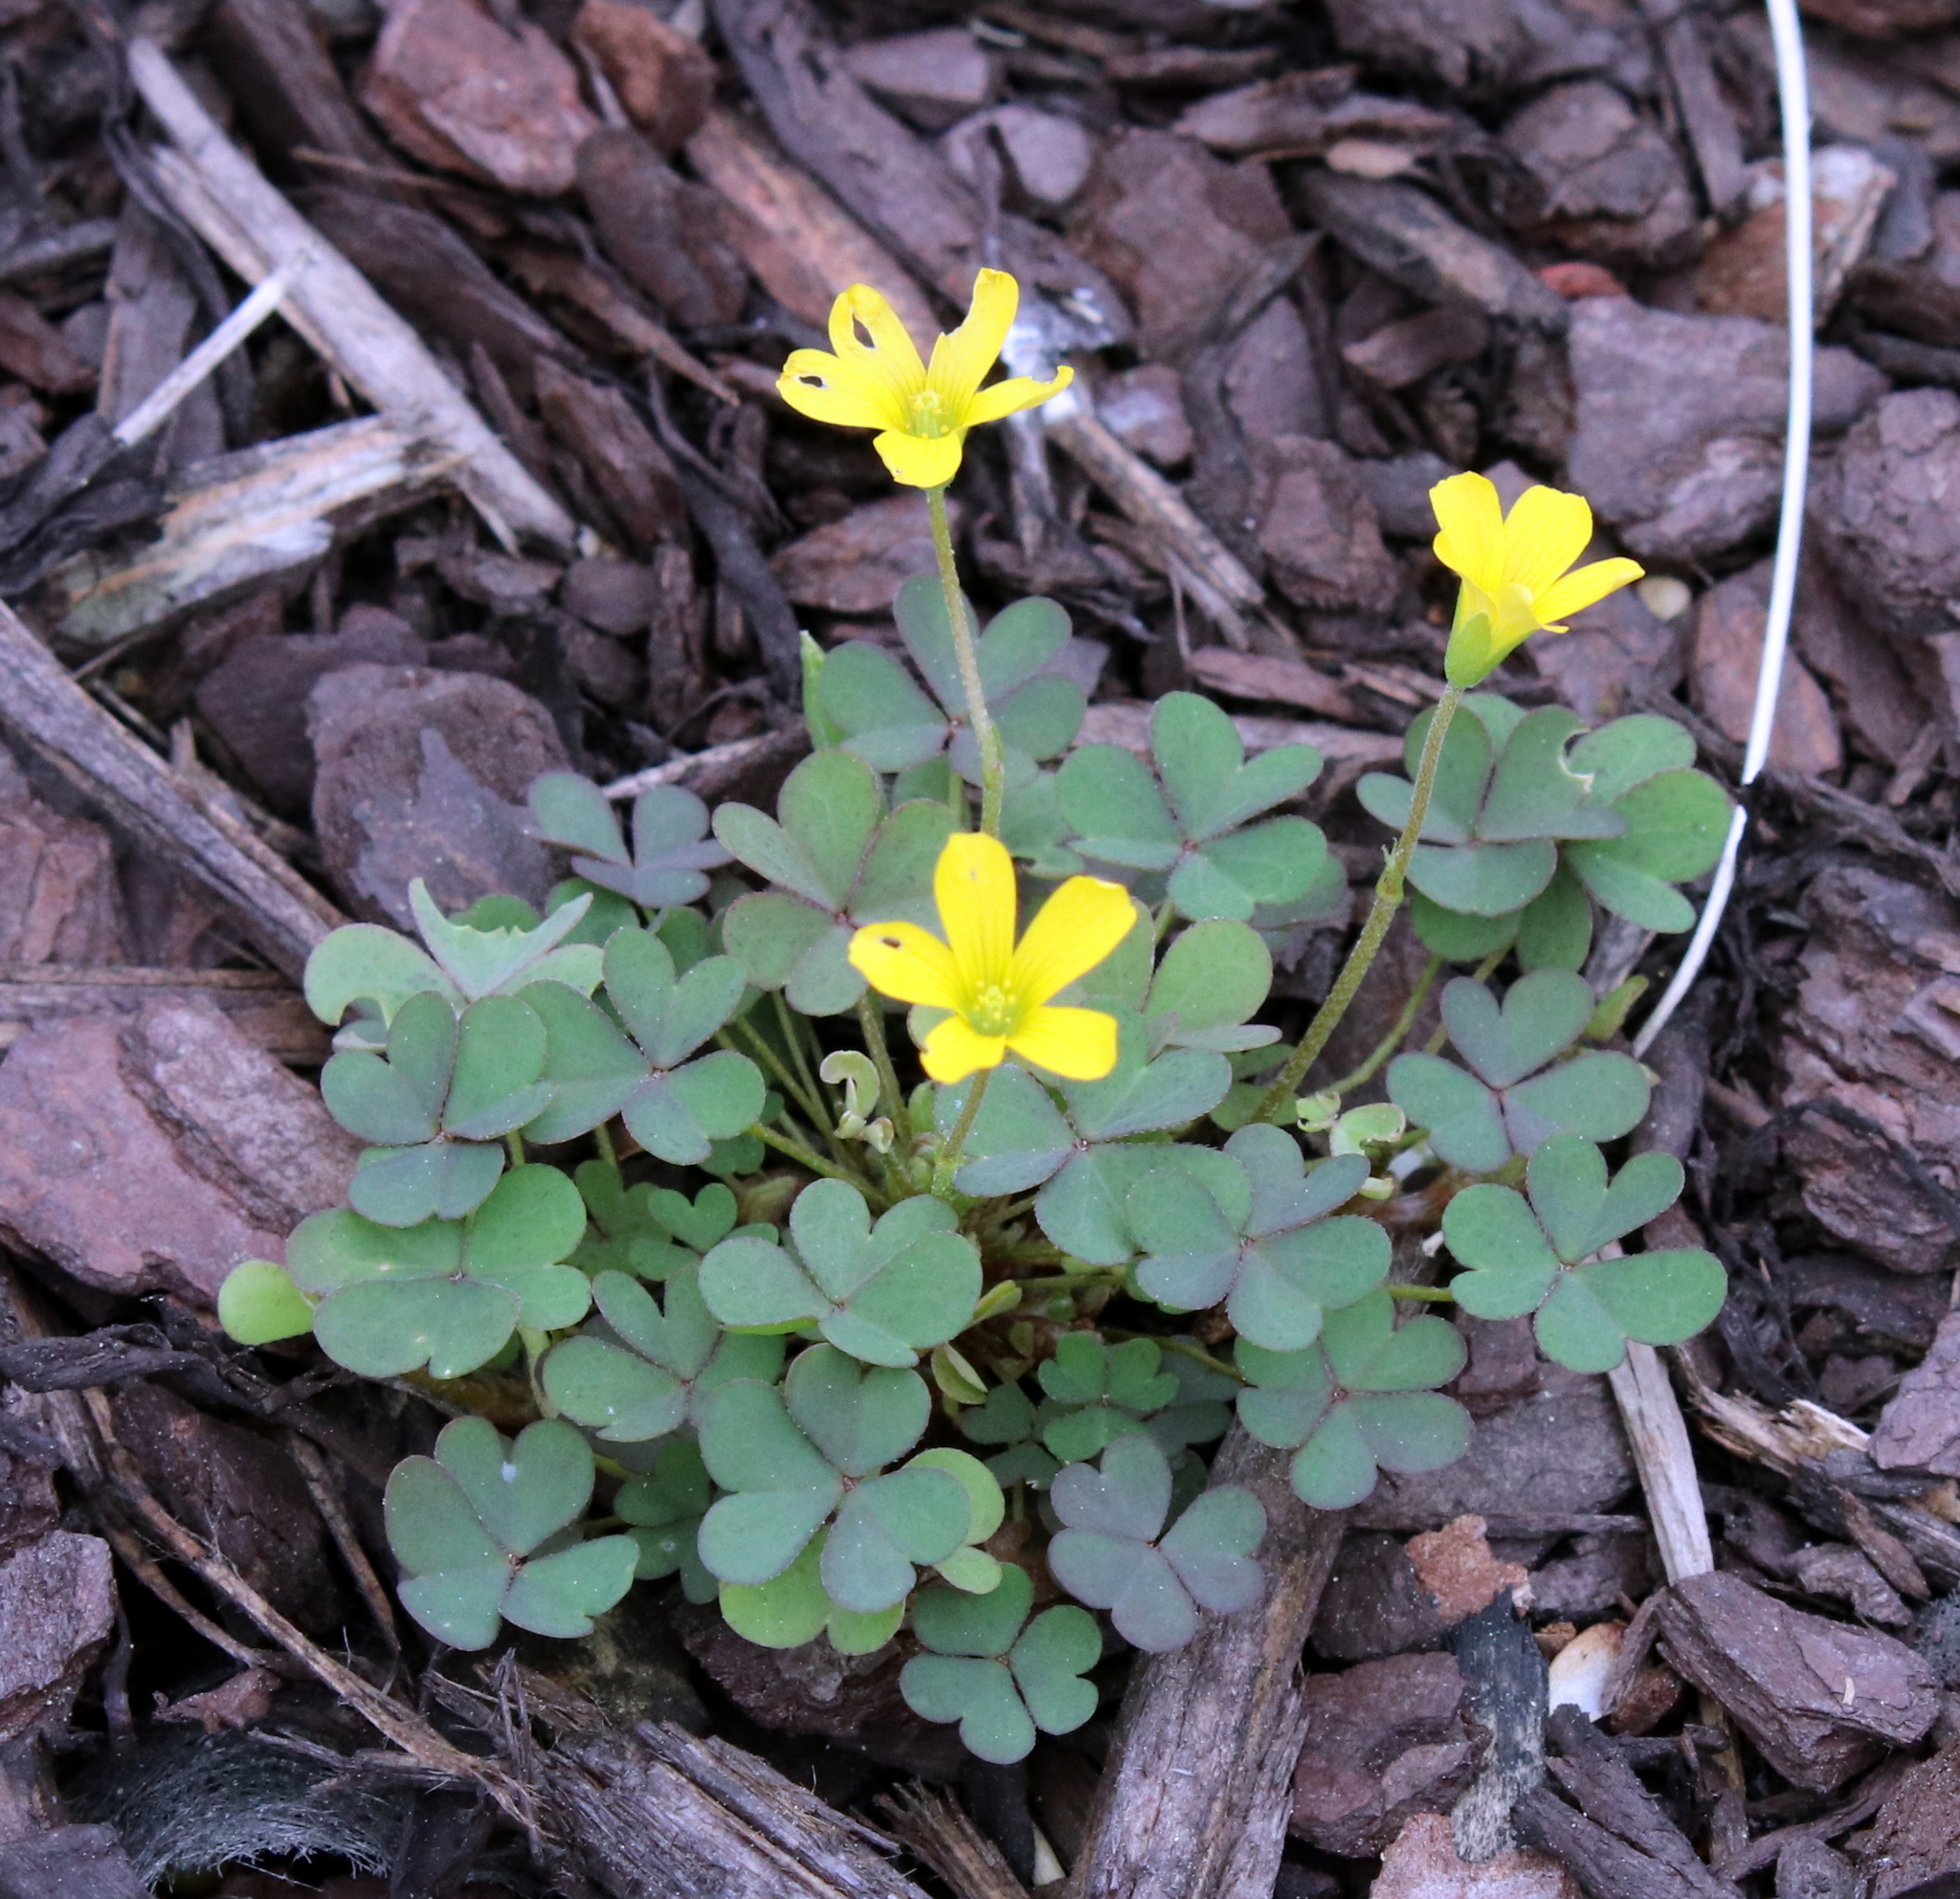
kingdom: Plantae
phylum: Tracheophyta
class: Magnoliopsida
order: Oxalidales
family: Oxalidaceae
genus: Oxalis
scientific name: Oxalis corniculata
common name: Procumbent yellow-sorrel
